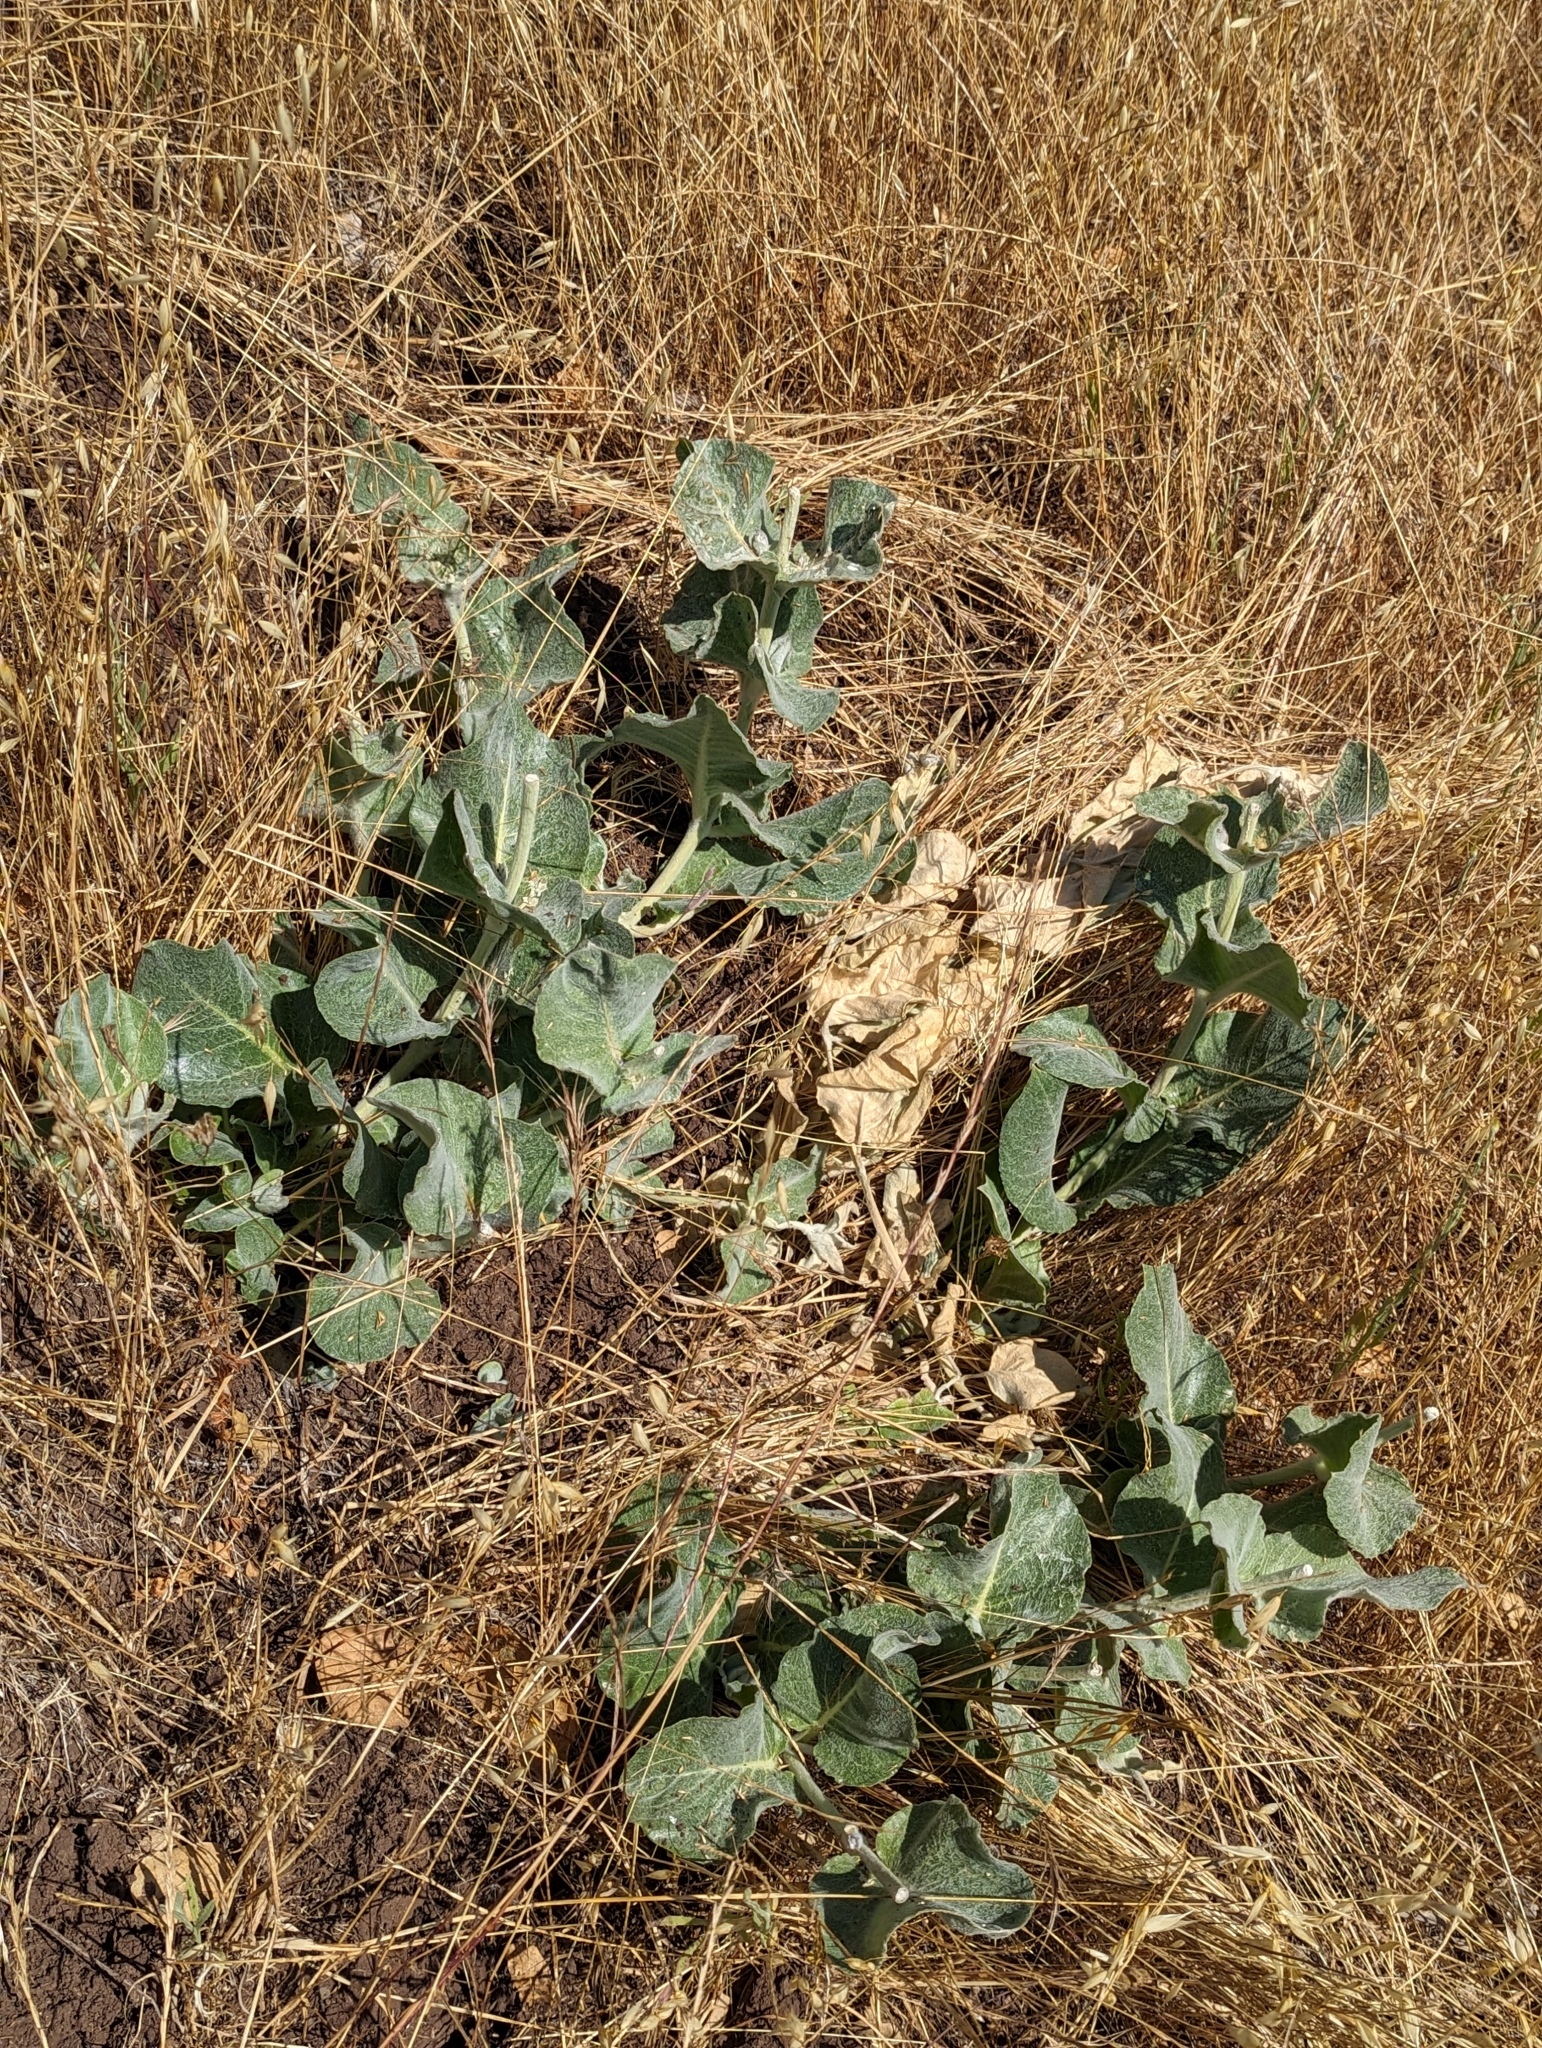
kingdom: Plantae
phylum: Tracheophyta
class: Magnoliopsida
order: Gentianales
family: Apocynaceae
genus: Asclepias
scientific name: Asclepias californica
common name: California milkweed
